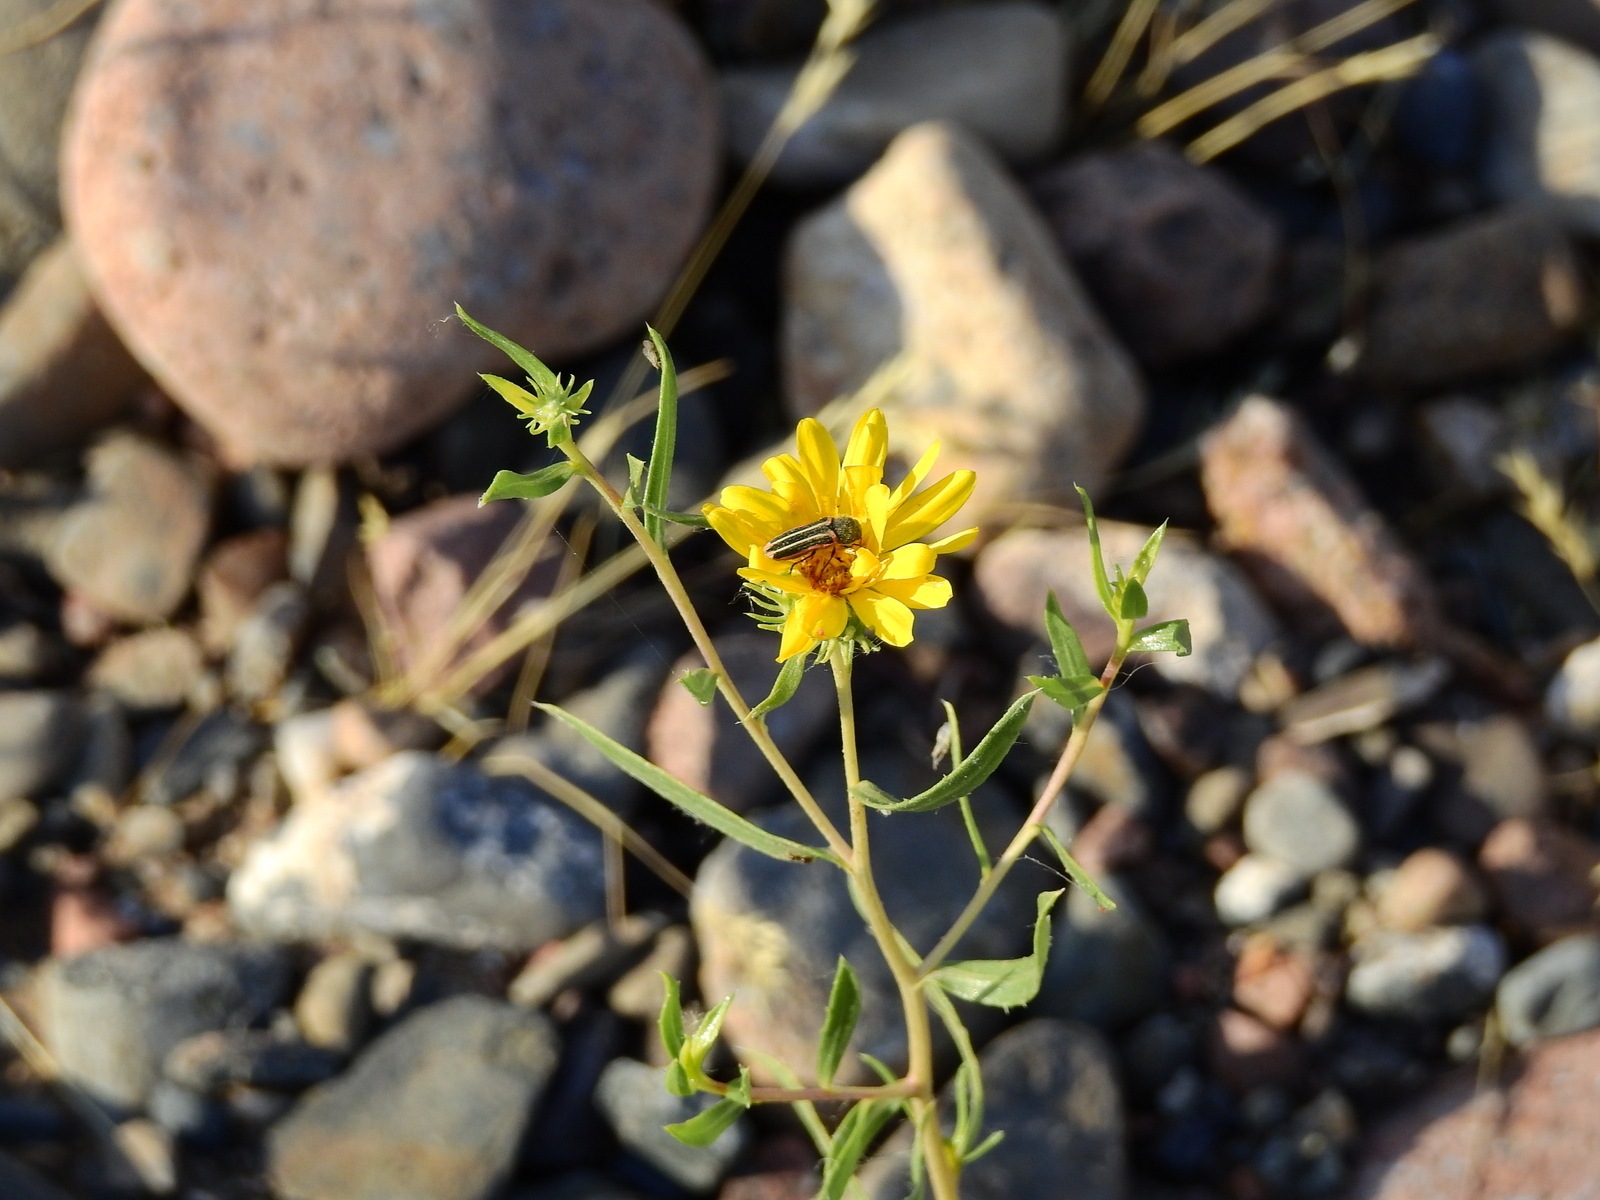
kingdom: Plantae
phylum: Tracheophyta
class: Magnoliopsida
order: Asterales
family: Asteraceae
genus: Grindelia
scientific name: Grindelia pulchella
